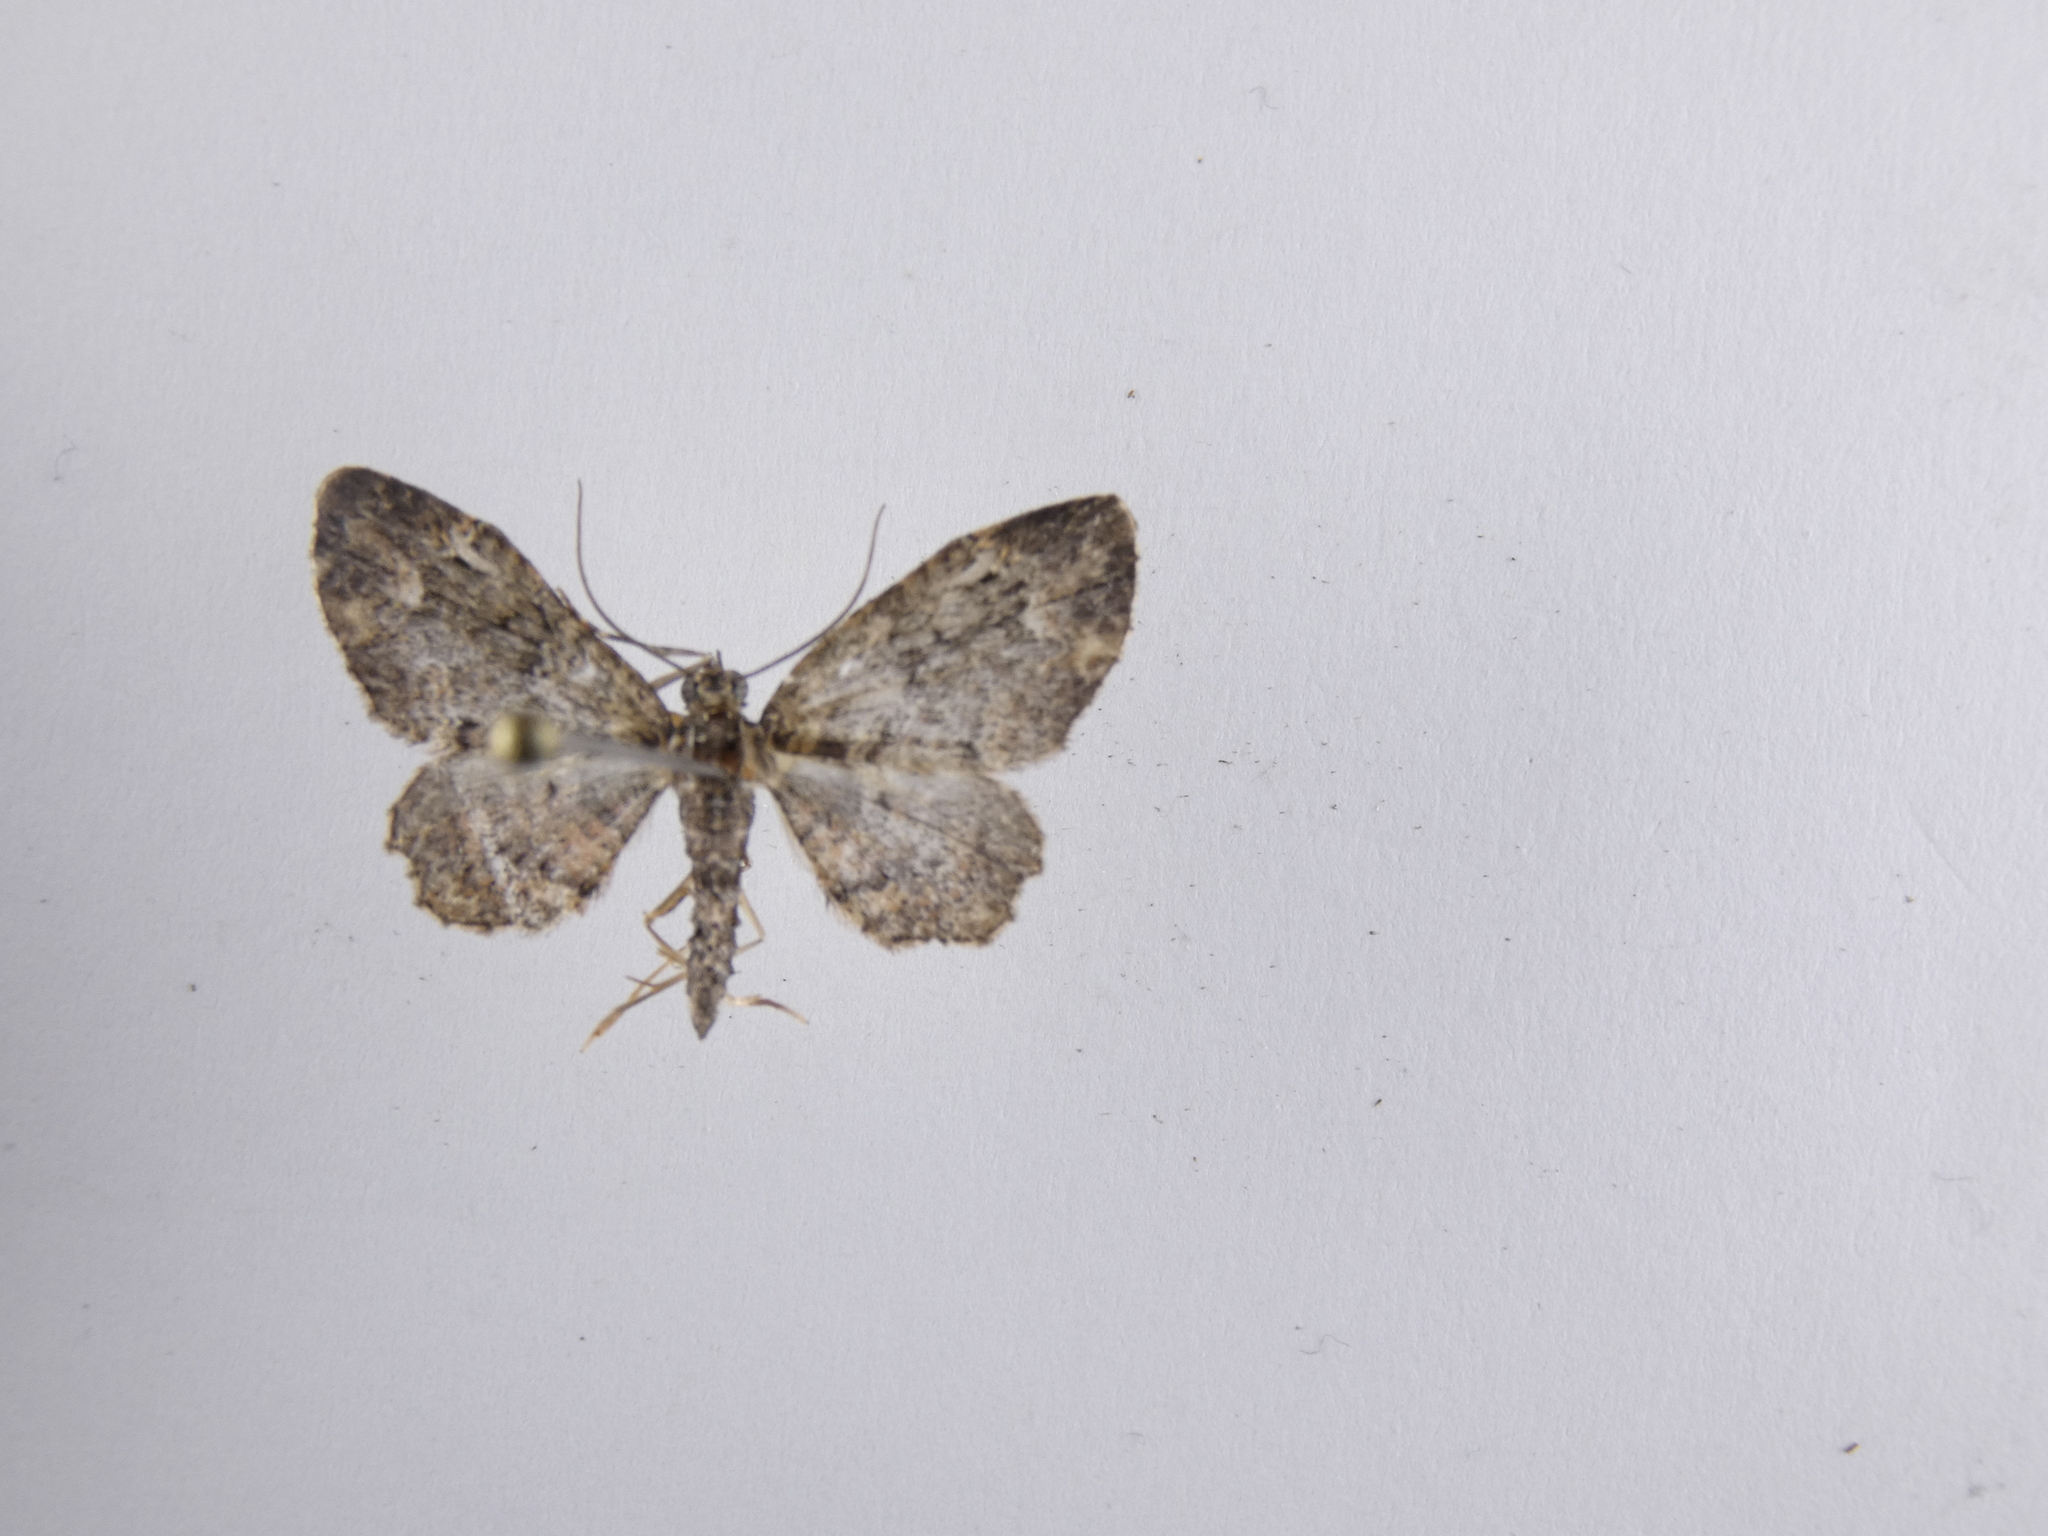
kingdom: Animalia
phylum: Arthropoda
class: Insecta
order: Lepidoptera
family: Geometridae
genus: Pasiphilodes
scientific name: Pasiphilodes testulata
